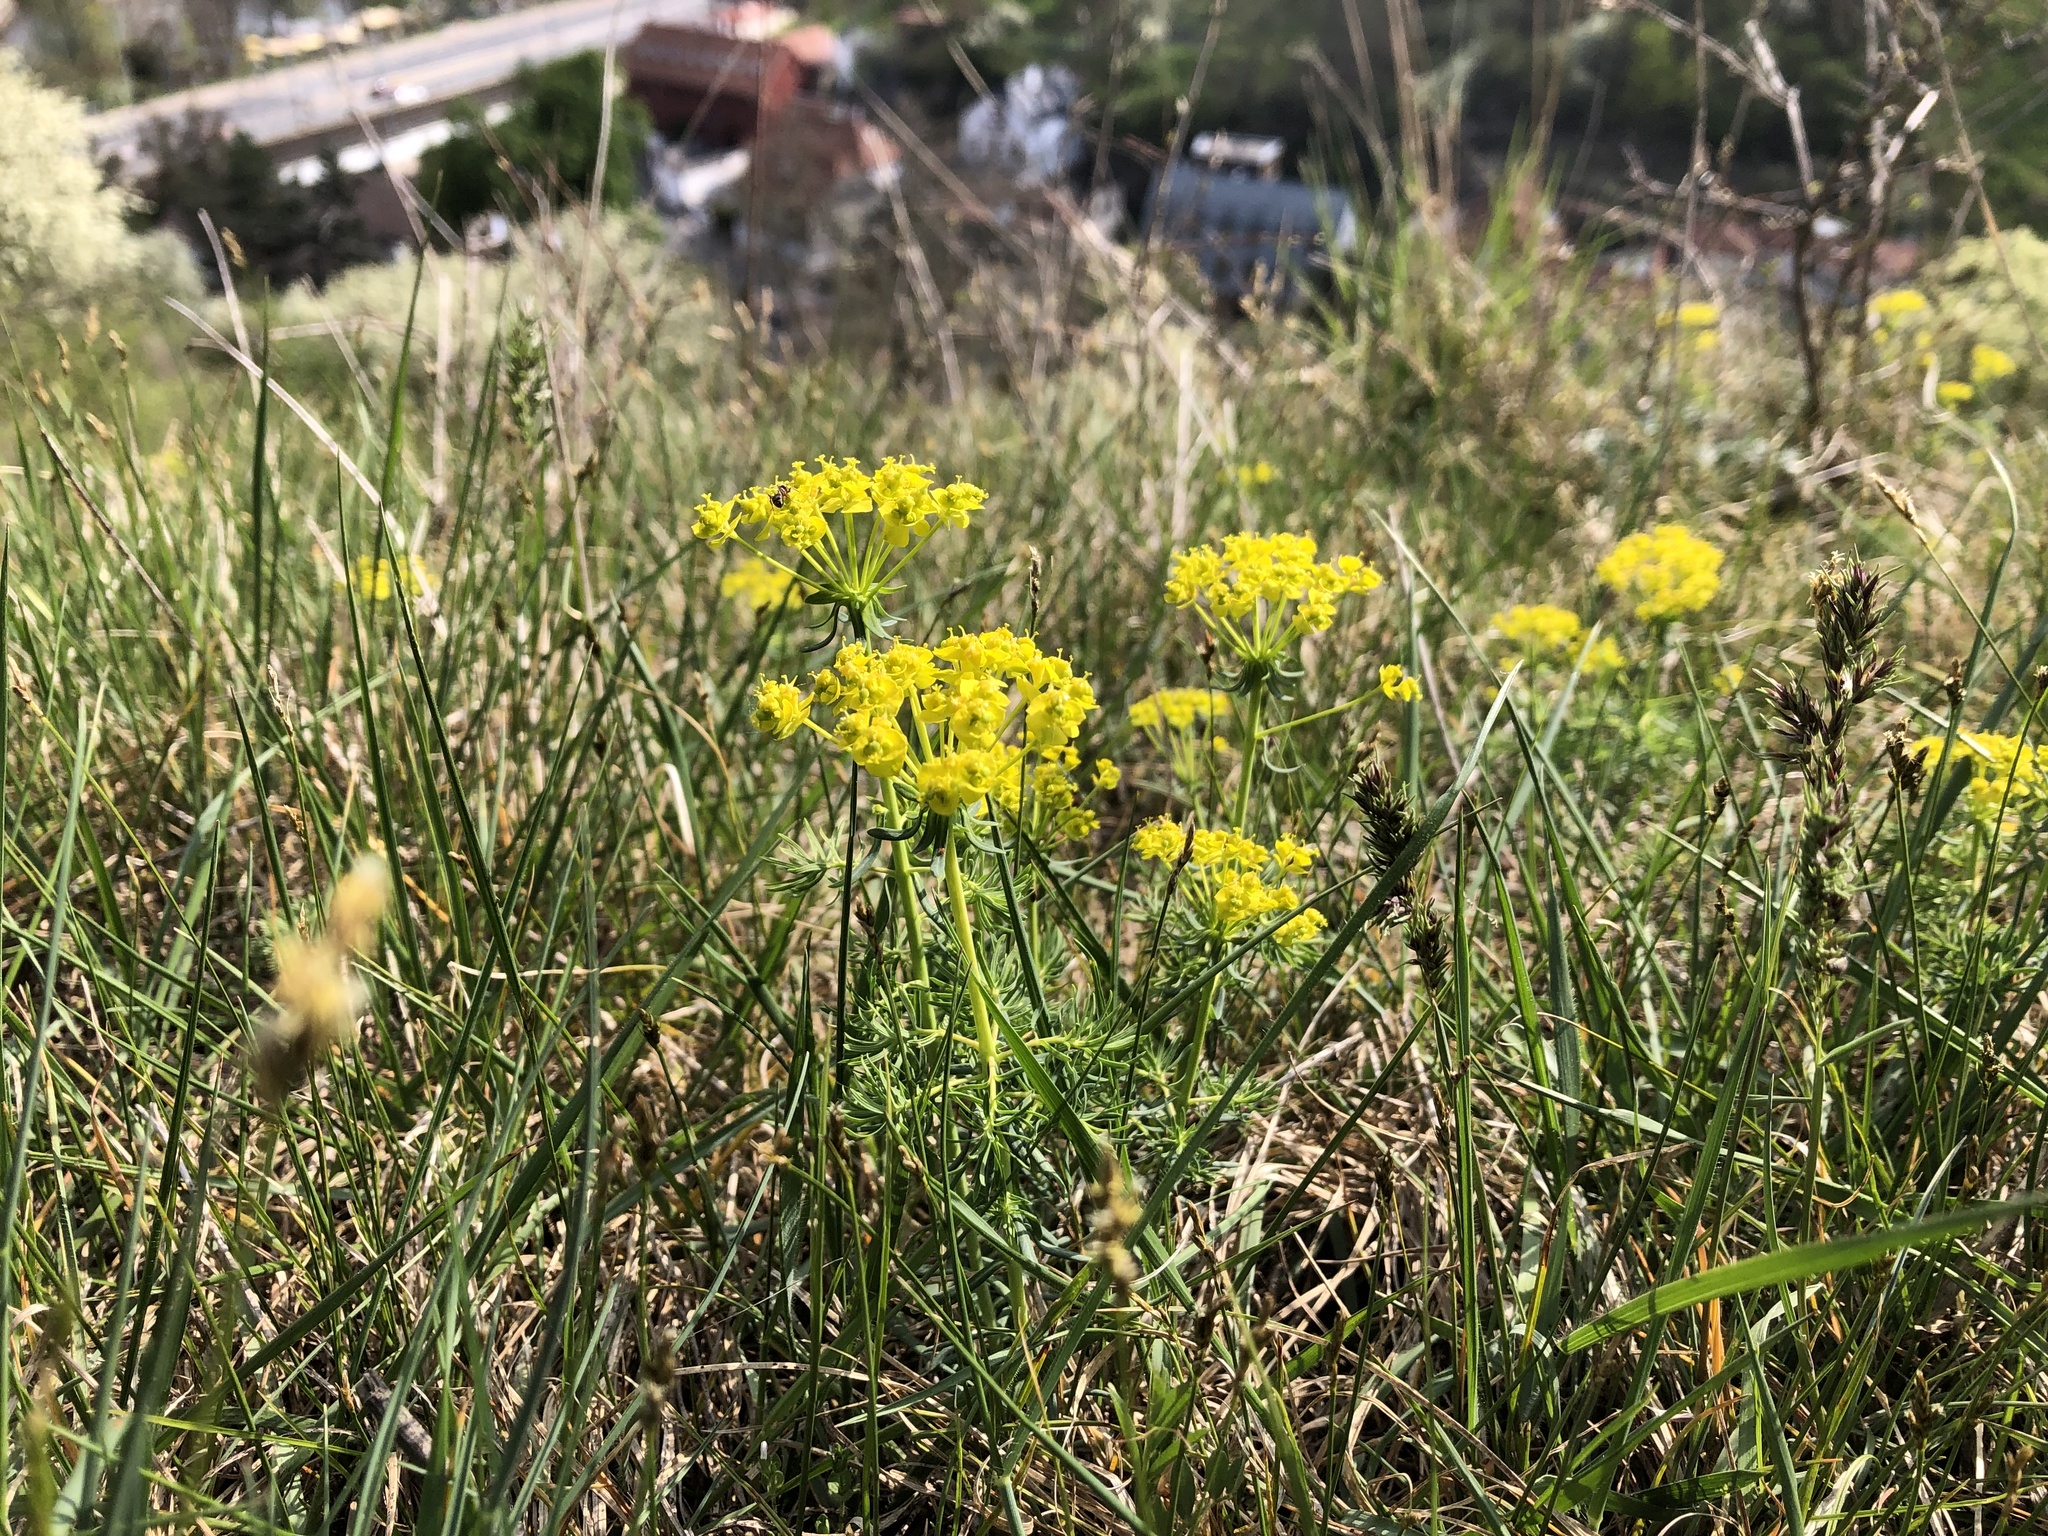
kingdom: Plantae
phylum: Tracheophyta
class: Magnoliopsida
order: Malpighiales
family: Euphorbiaceae
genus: Euphorbia
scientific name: Euphorbia cyparissias
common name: Cypress spurge
